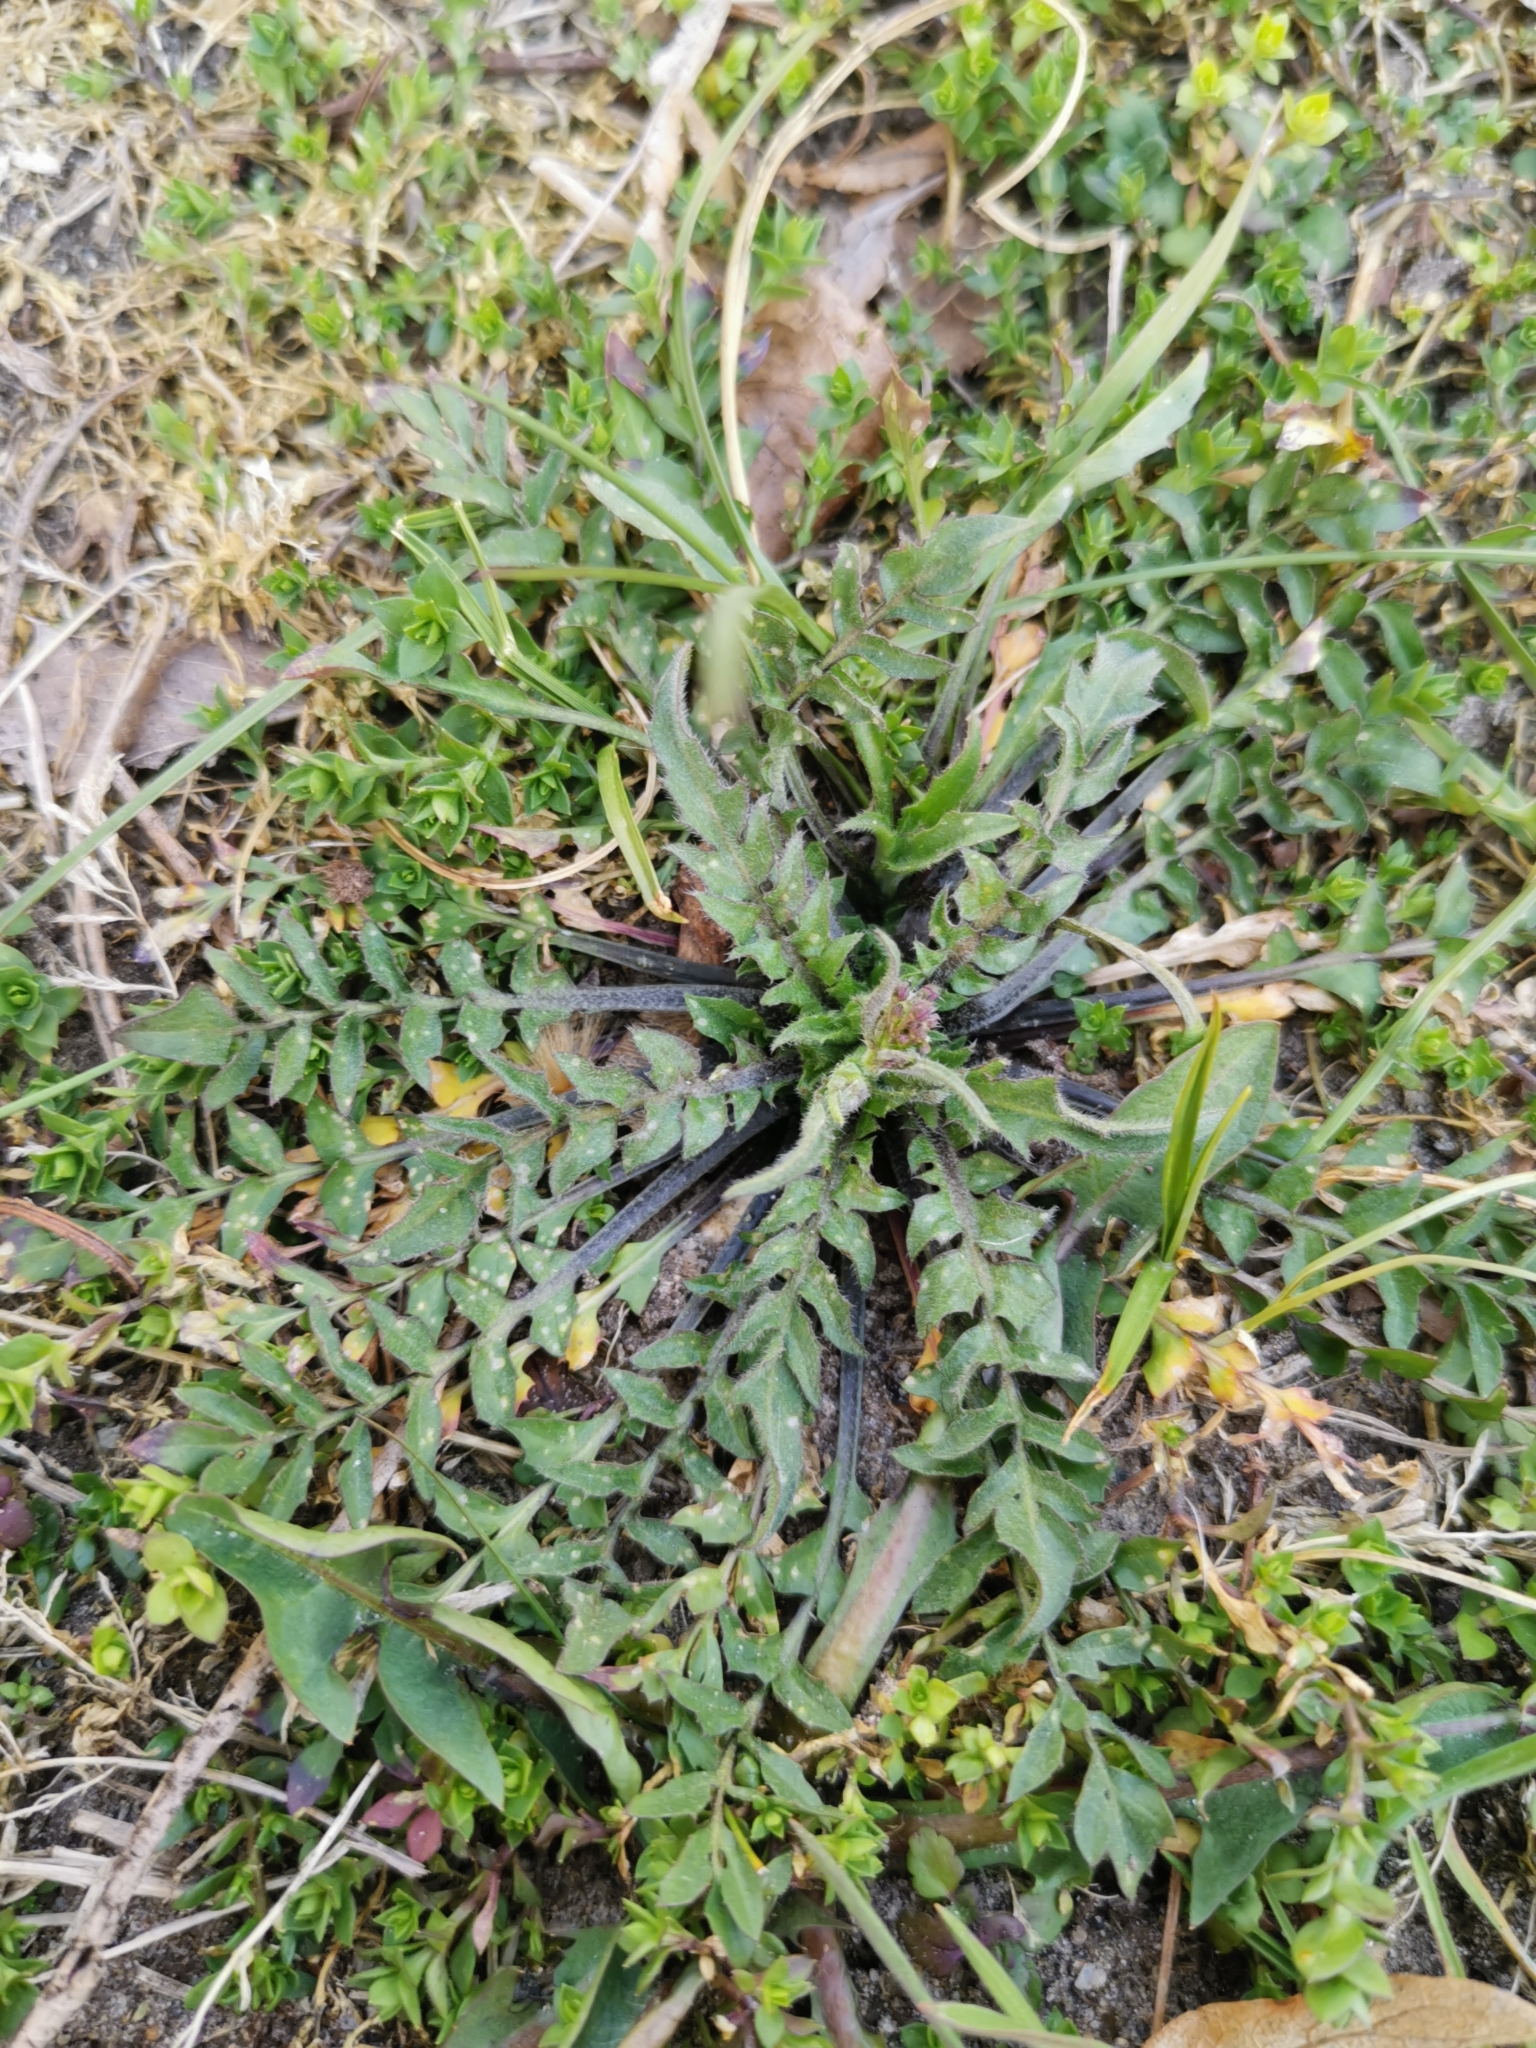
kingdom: Plantae
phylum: Tracheophyta
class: Magnoliopsida
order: Brassicales
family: Brassicaceae
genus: Capsella
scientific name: Capsella bursa-pastoris
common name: Shepherd's purse
